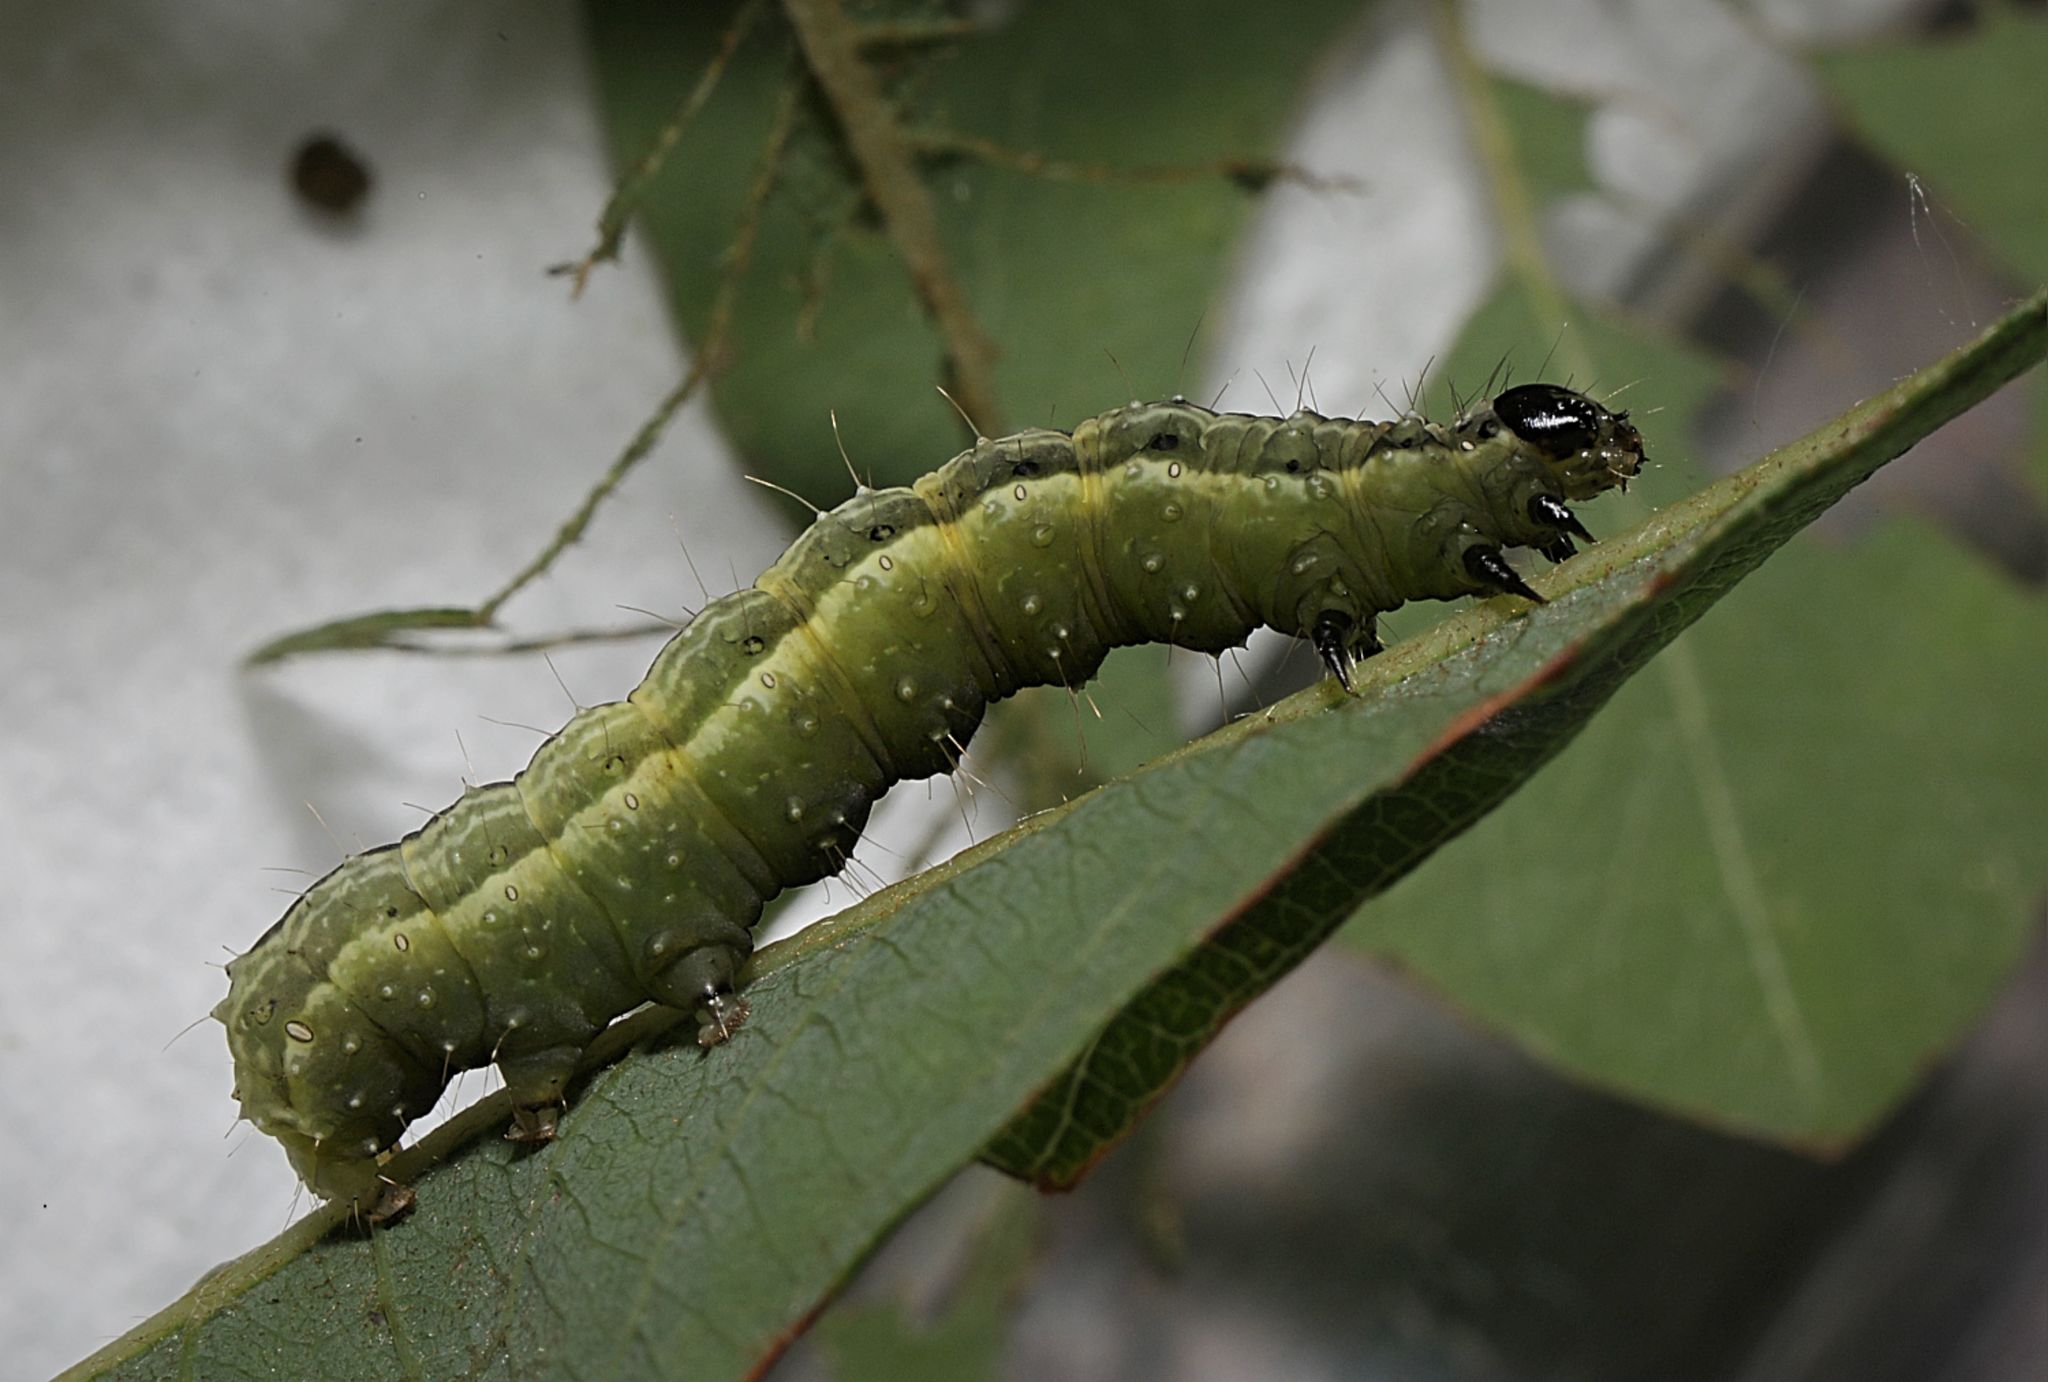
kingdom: Animalia
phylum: Arthropoda
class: Insecta
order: Lepidoptera
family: Noctuidae
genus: Autographa
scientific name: Autographa gamma
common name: Silver y
